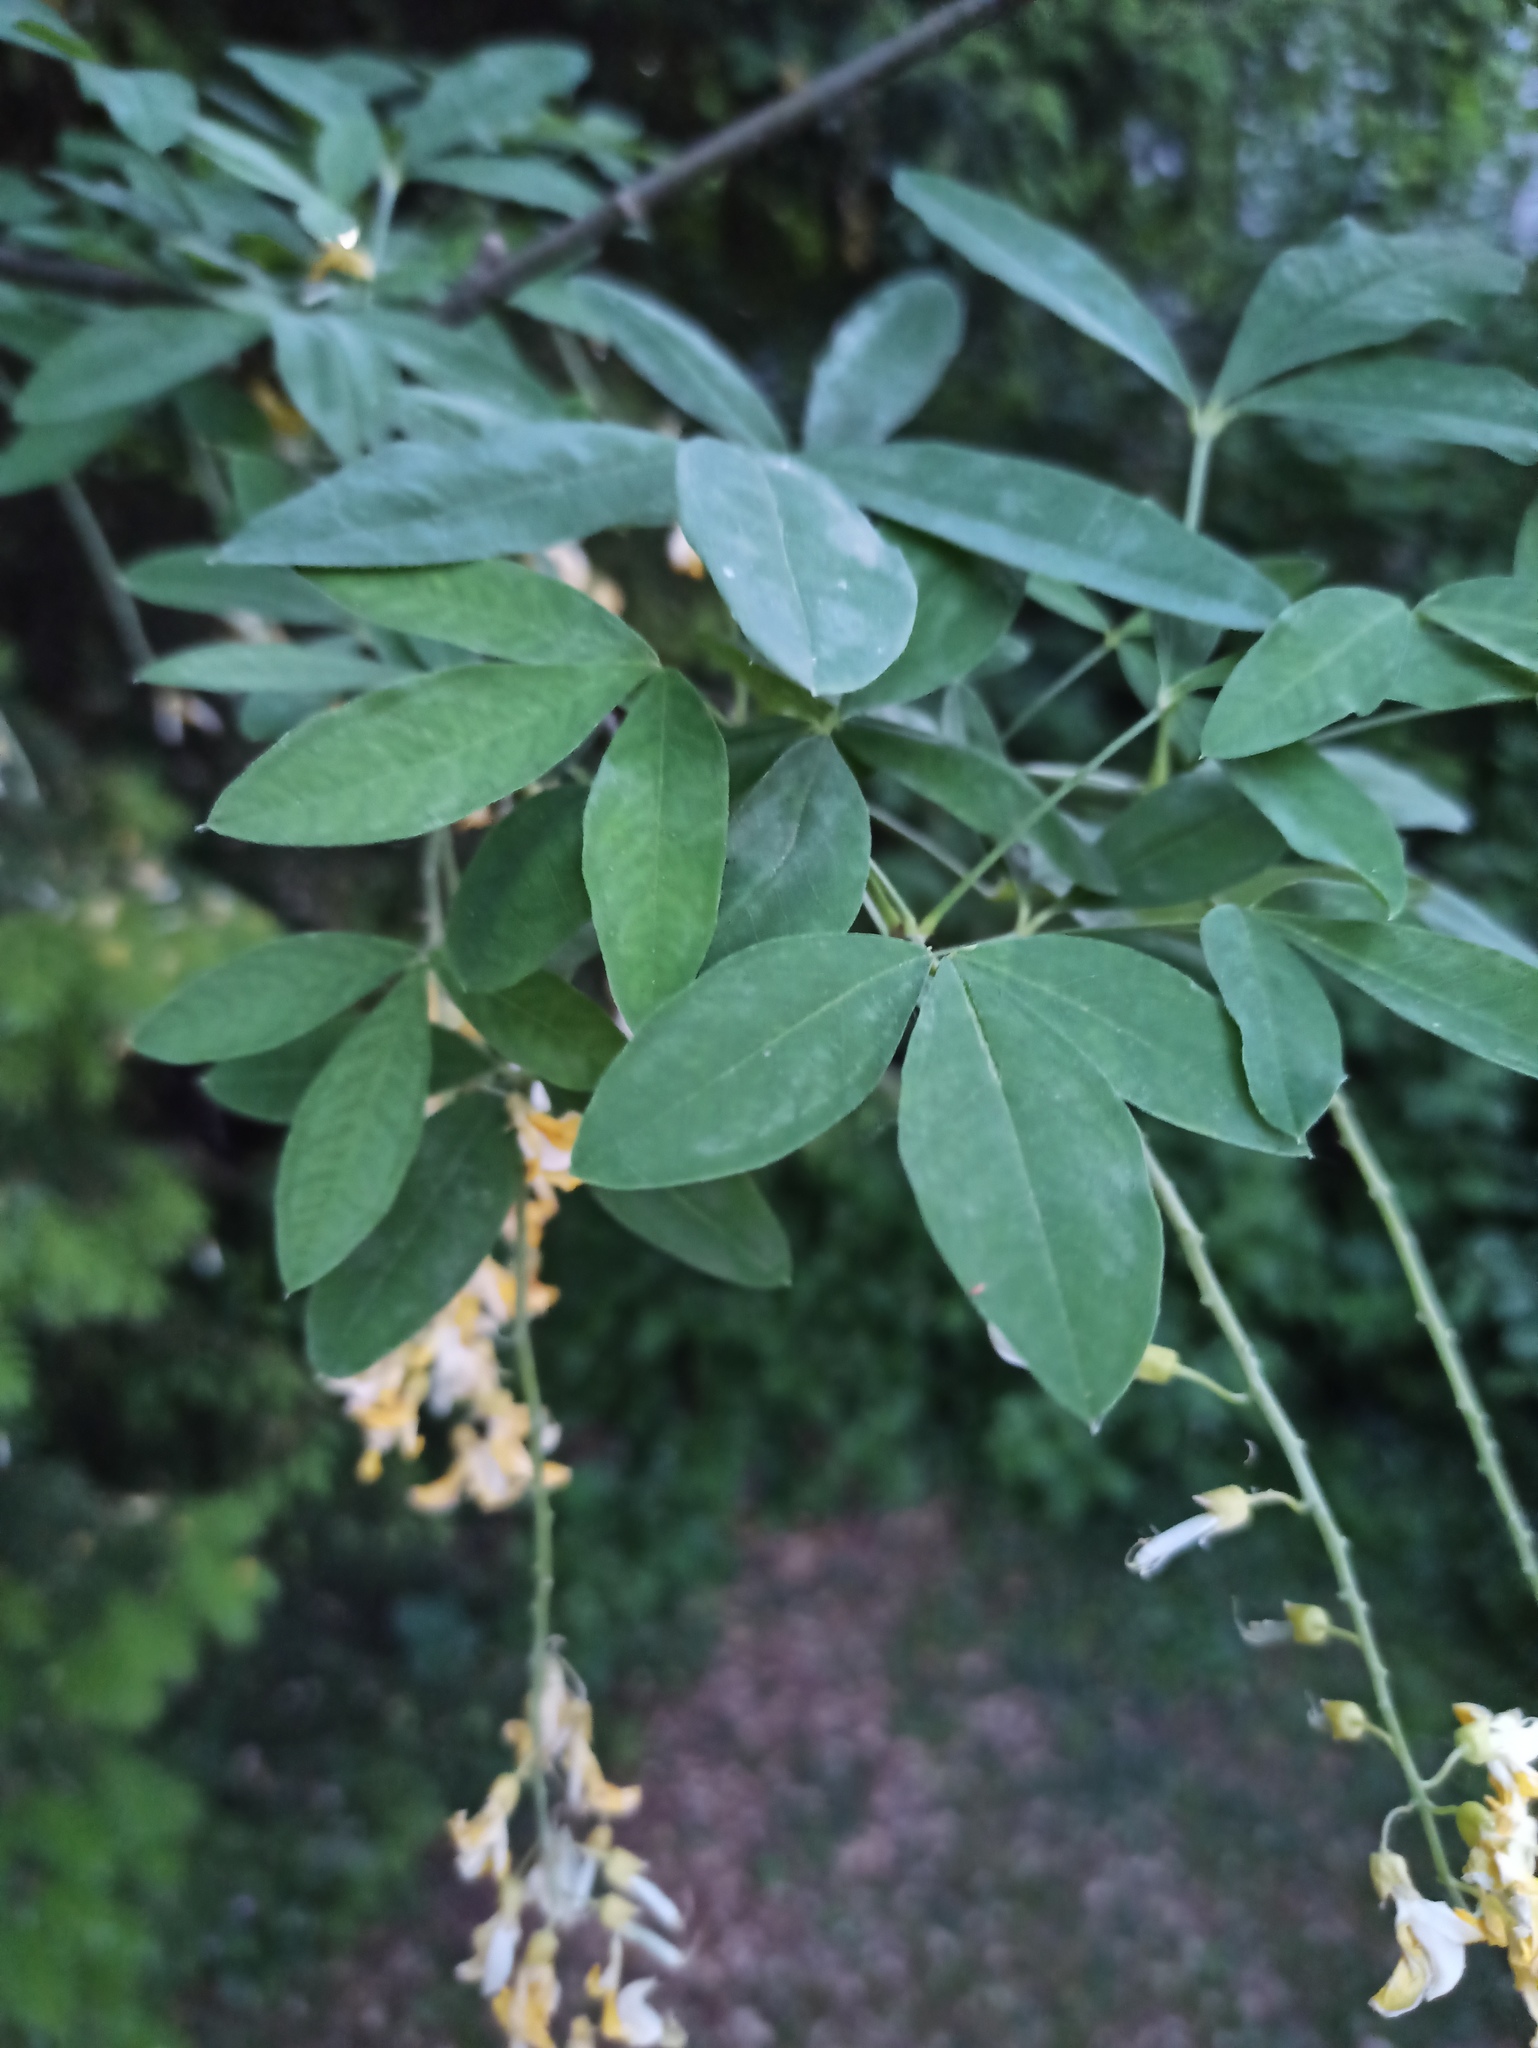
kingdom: Plantae
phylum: Tracheophyta
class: Magnoliopsida
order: Fabales
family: Fabaceae
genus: Laburnum
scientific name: Laburnum anagyroides
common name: Laburnum
